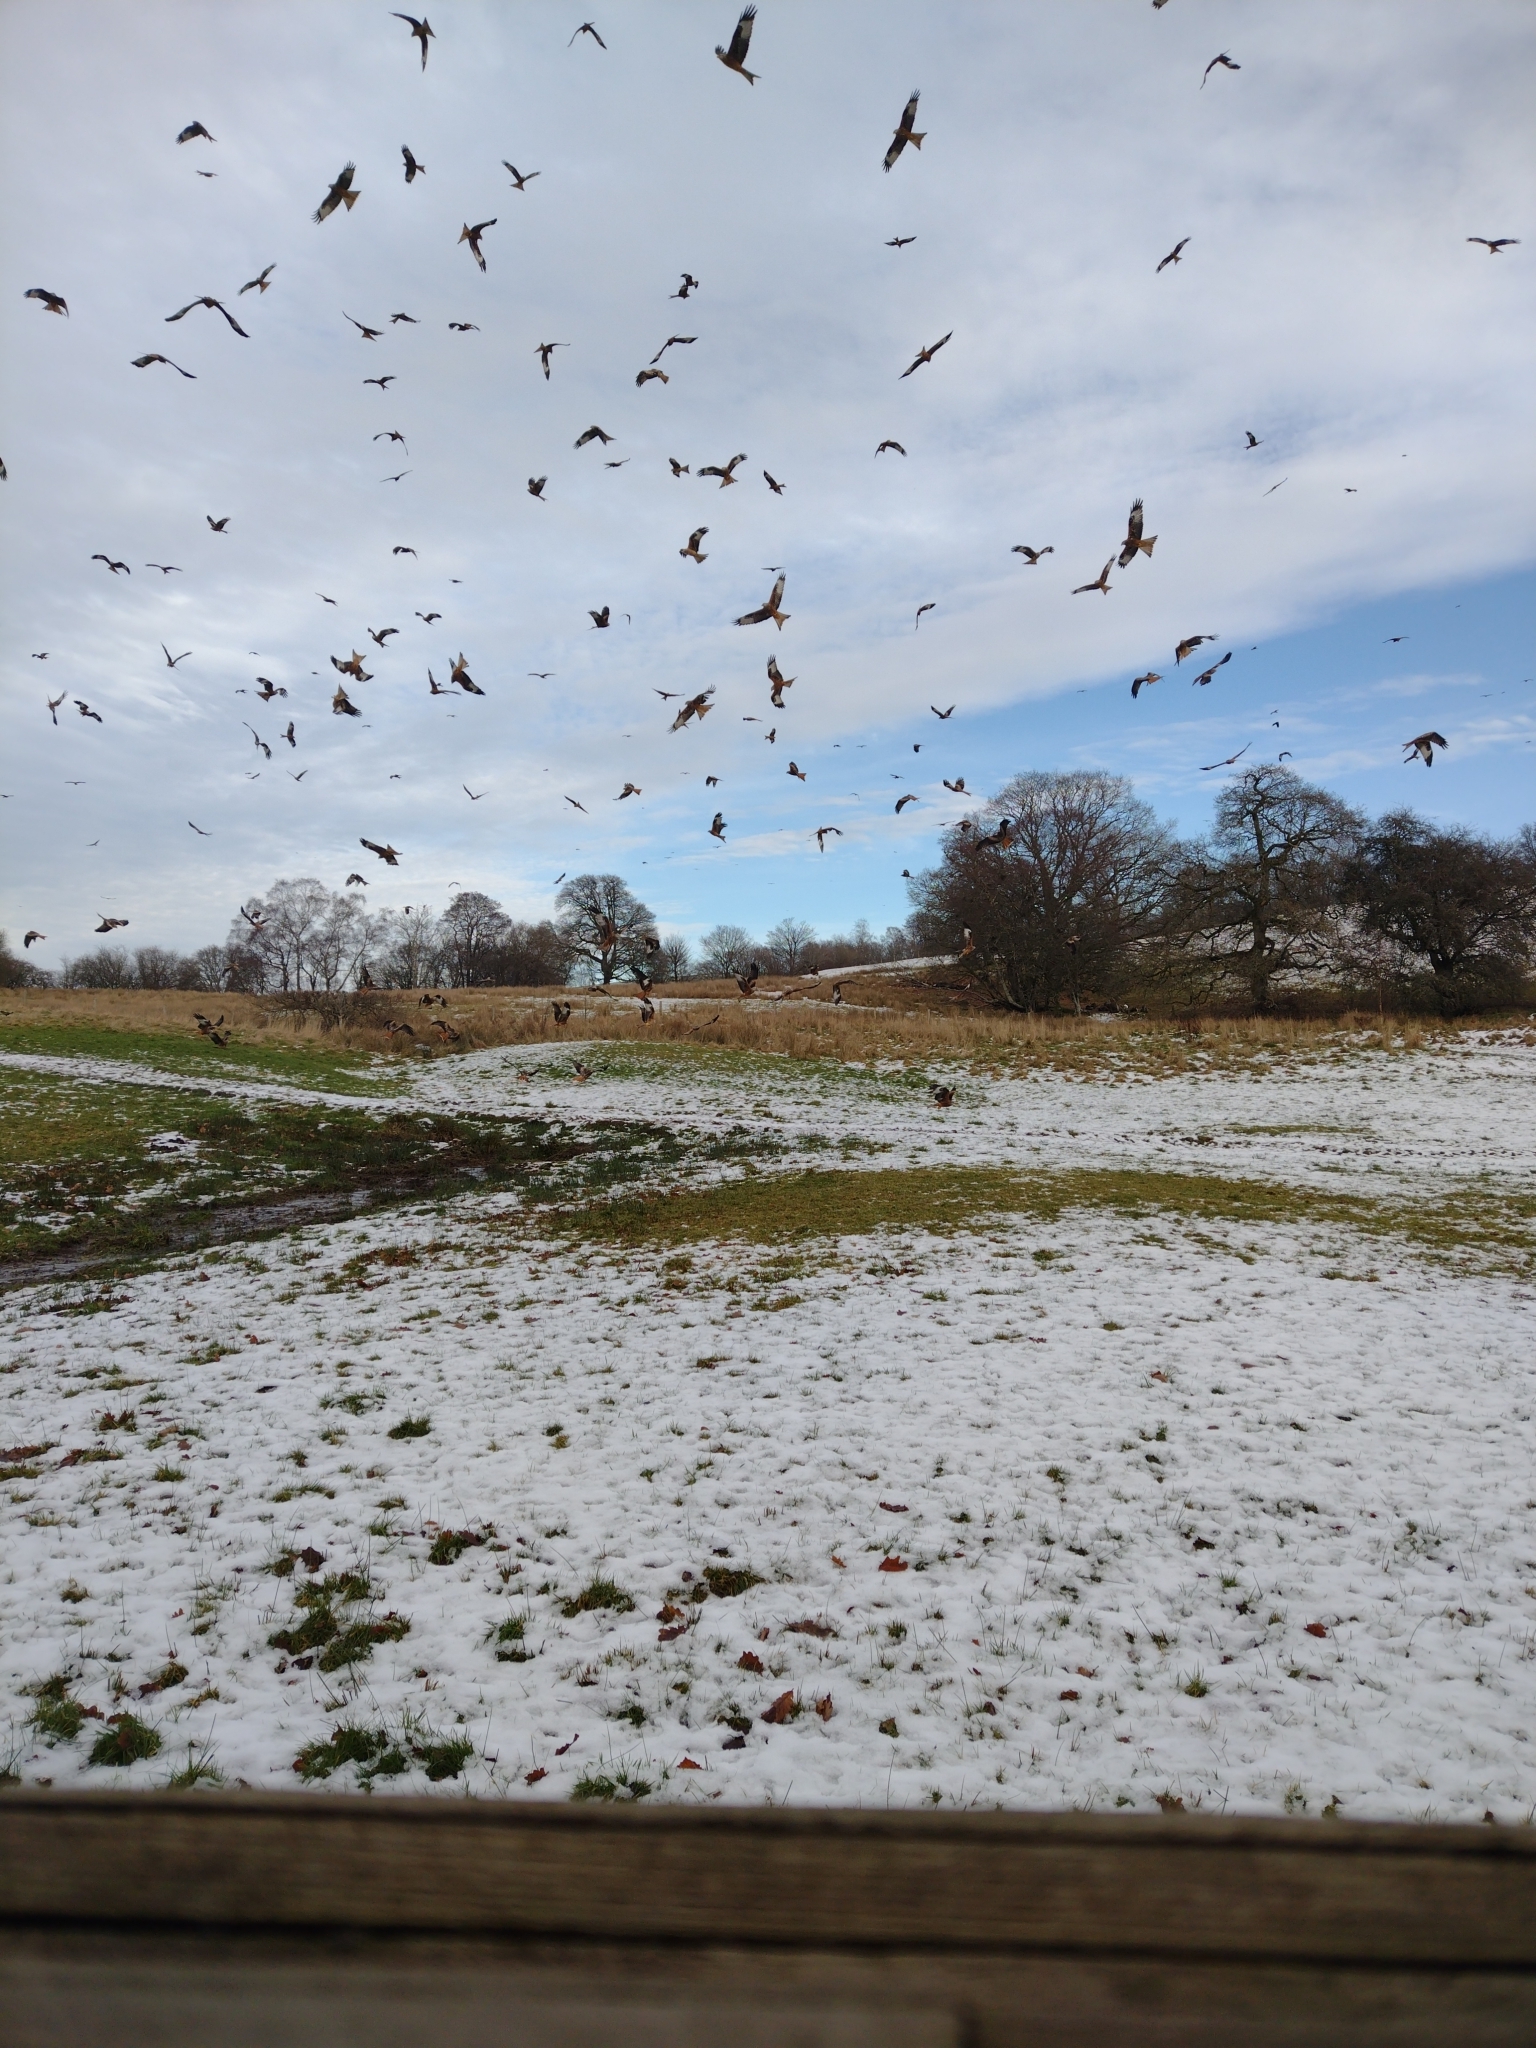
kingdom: Animalia
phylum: Chordata
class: Aves
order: Accipitriformes
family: Accipitridae
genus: Milvus
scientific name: Milvus milvus
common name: Red kite
